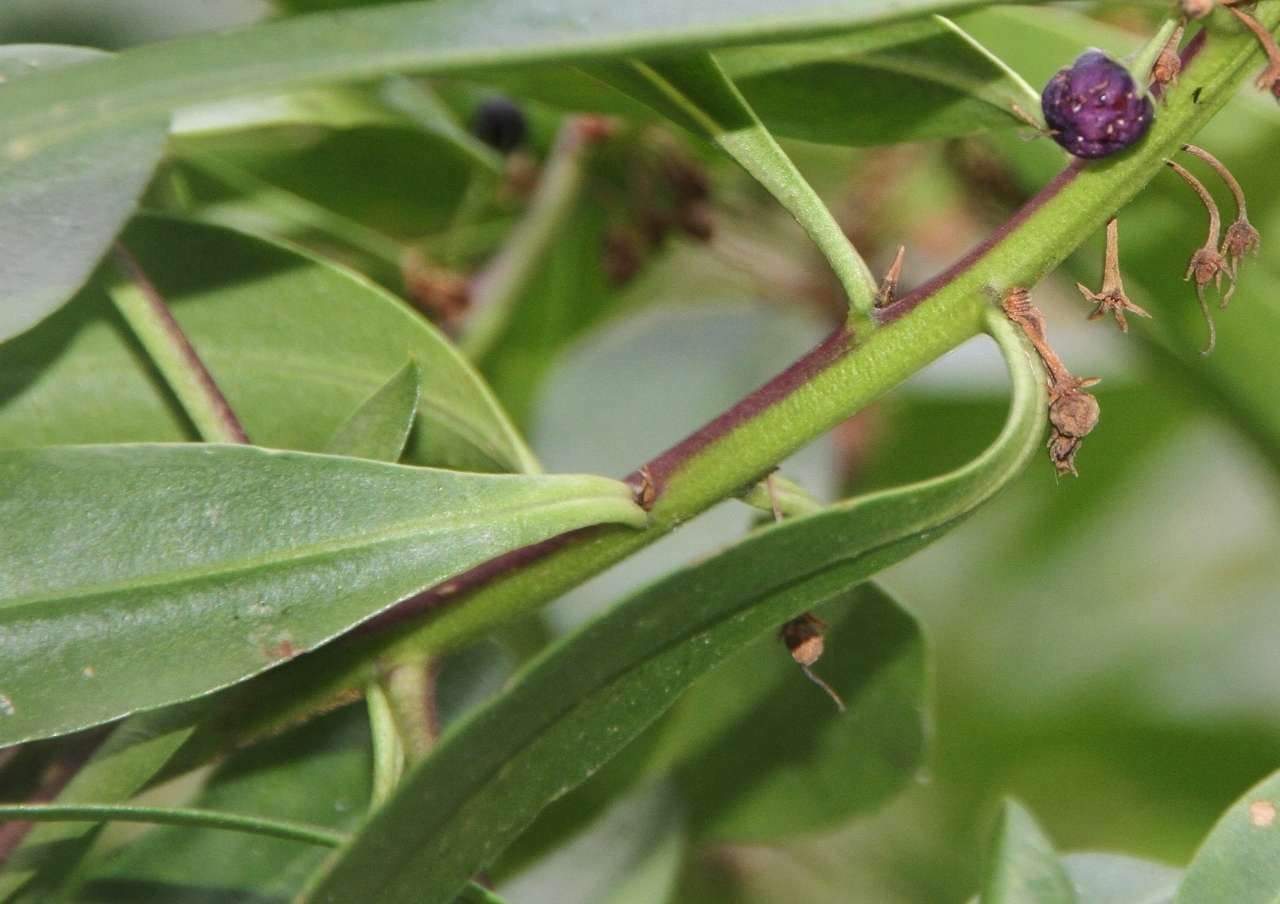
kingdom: Plantae
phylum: Tracheophyta
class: Magnoliopsida
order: Lamiales
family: Scrophulariaceae
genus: Myoporum
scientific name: Myoporum insulare
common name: Common boobialla
